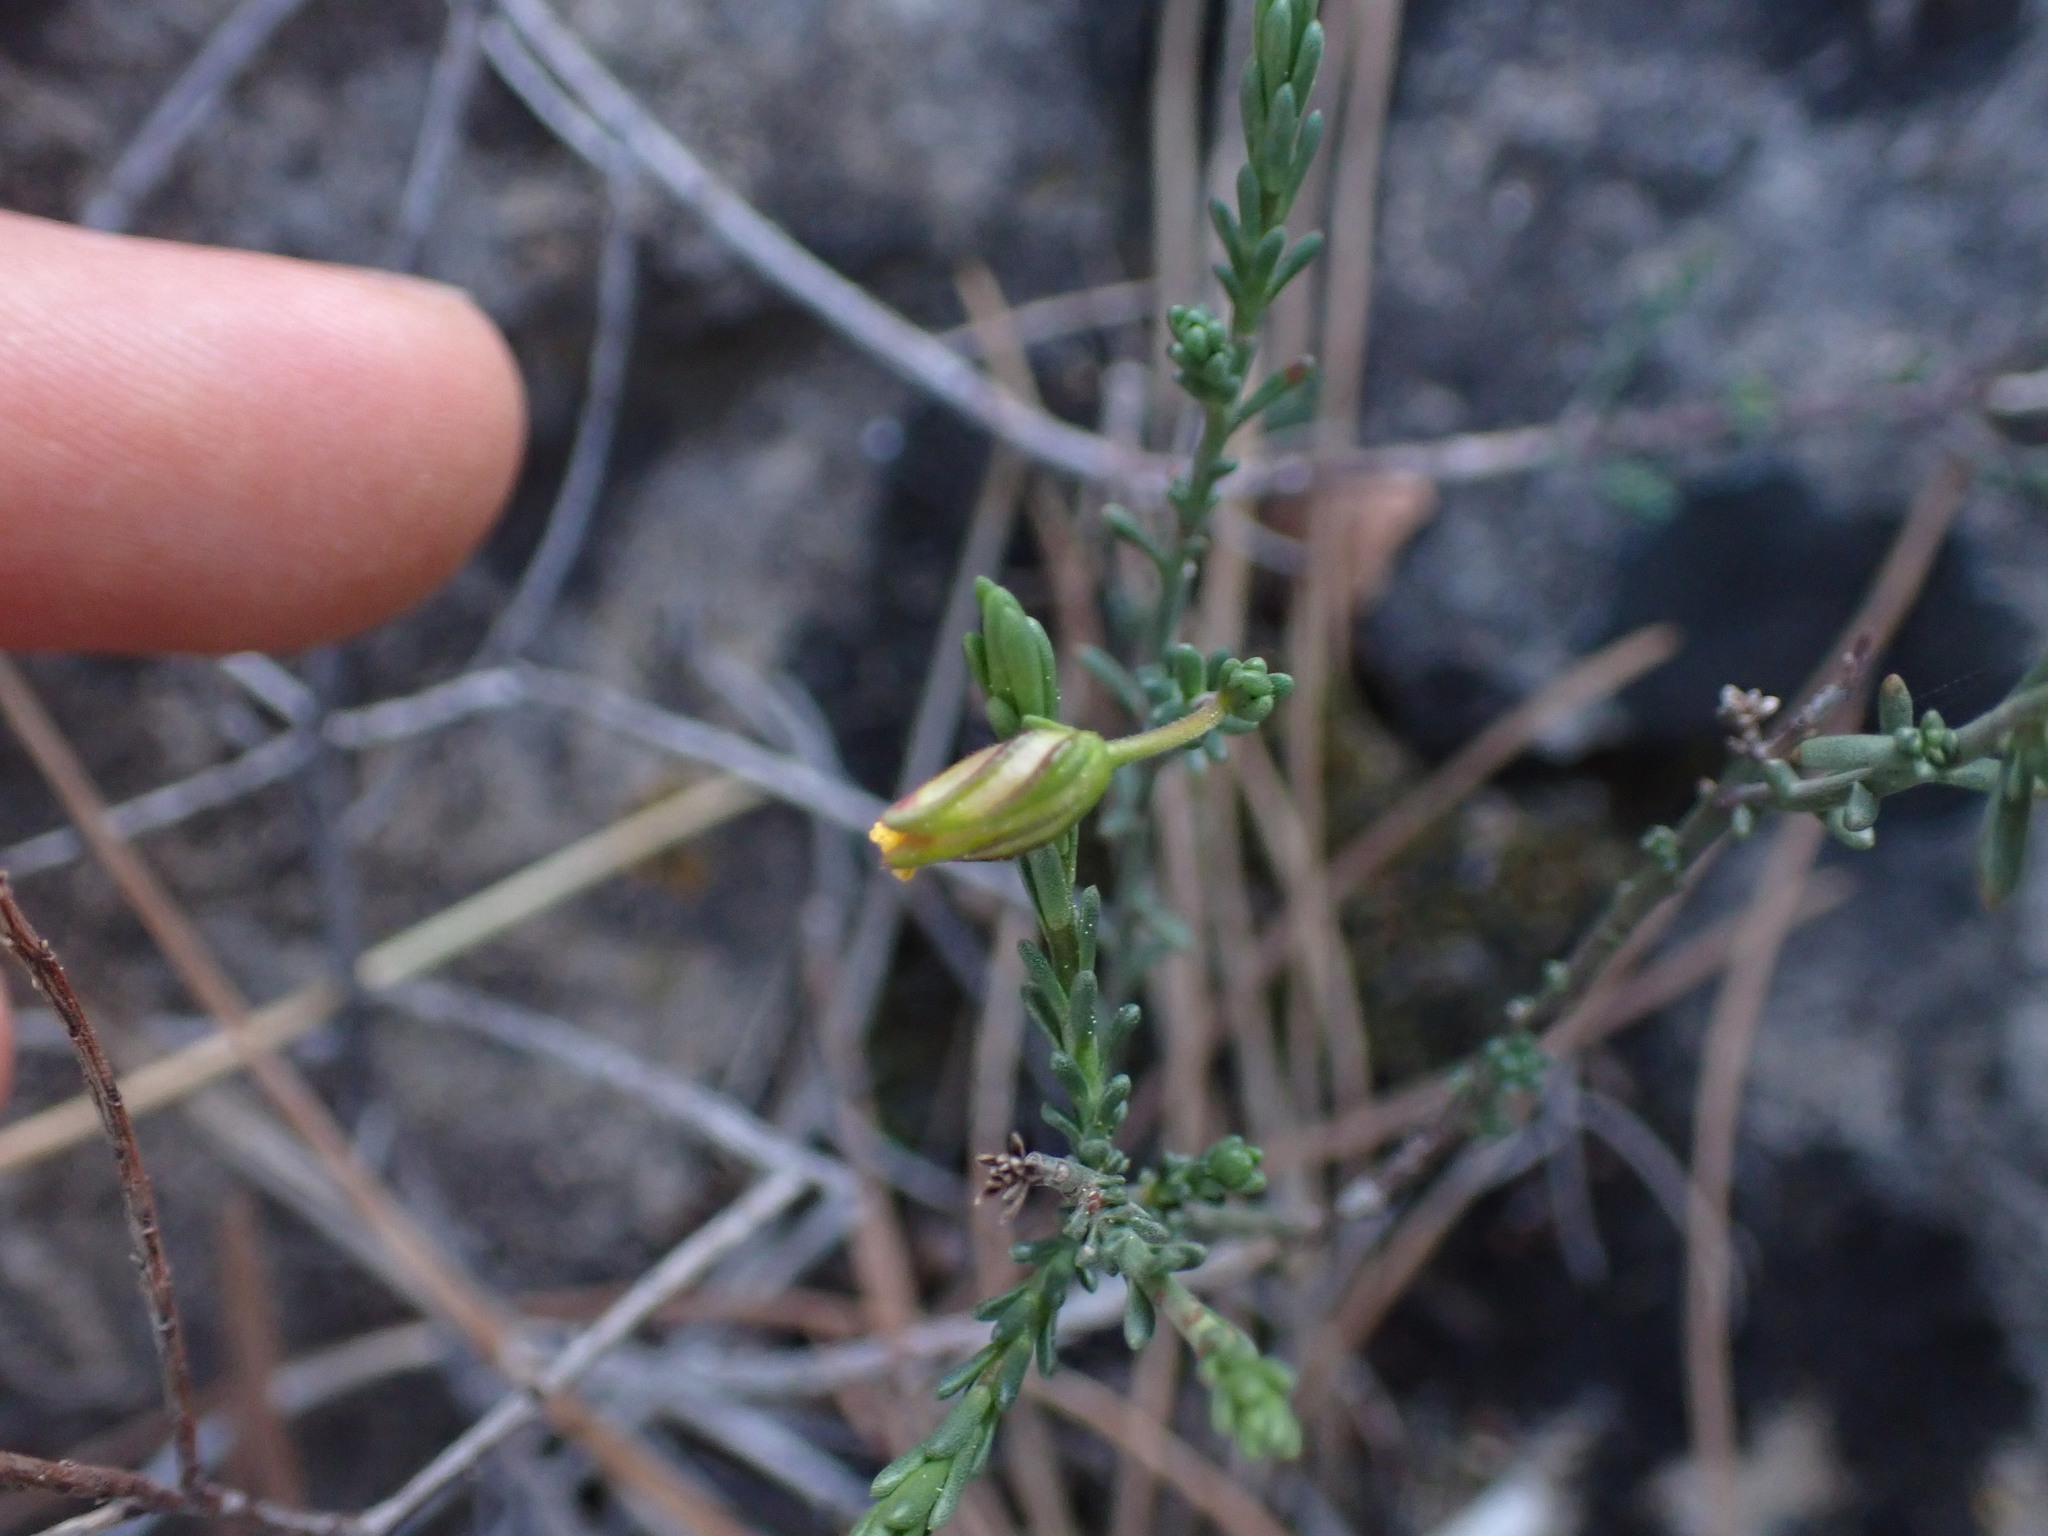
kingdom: Plantae
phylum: Tracheophyta
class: Magnoliopsida
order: Malvales
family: Cistaceae
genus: Fumana
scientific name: Fumana ericifolia
